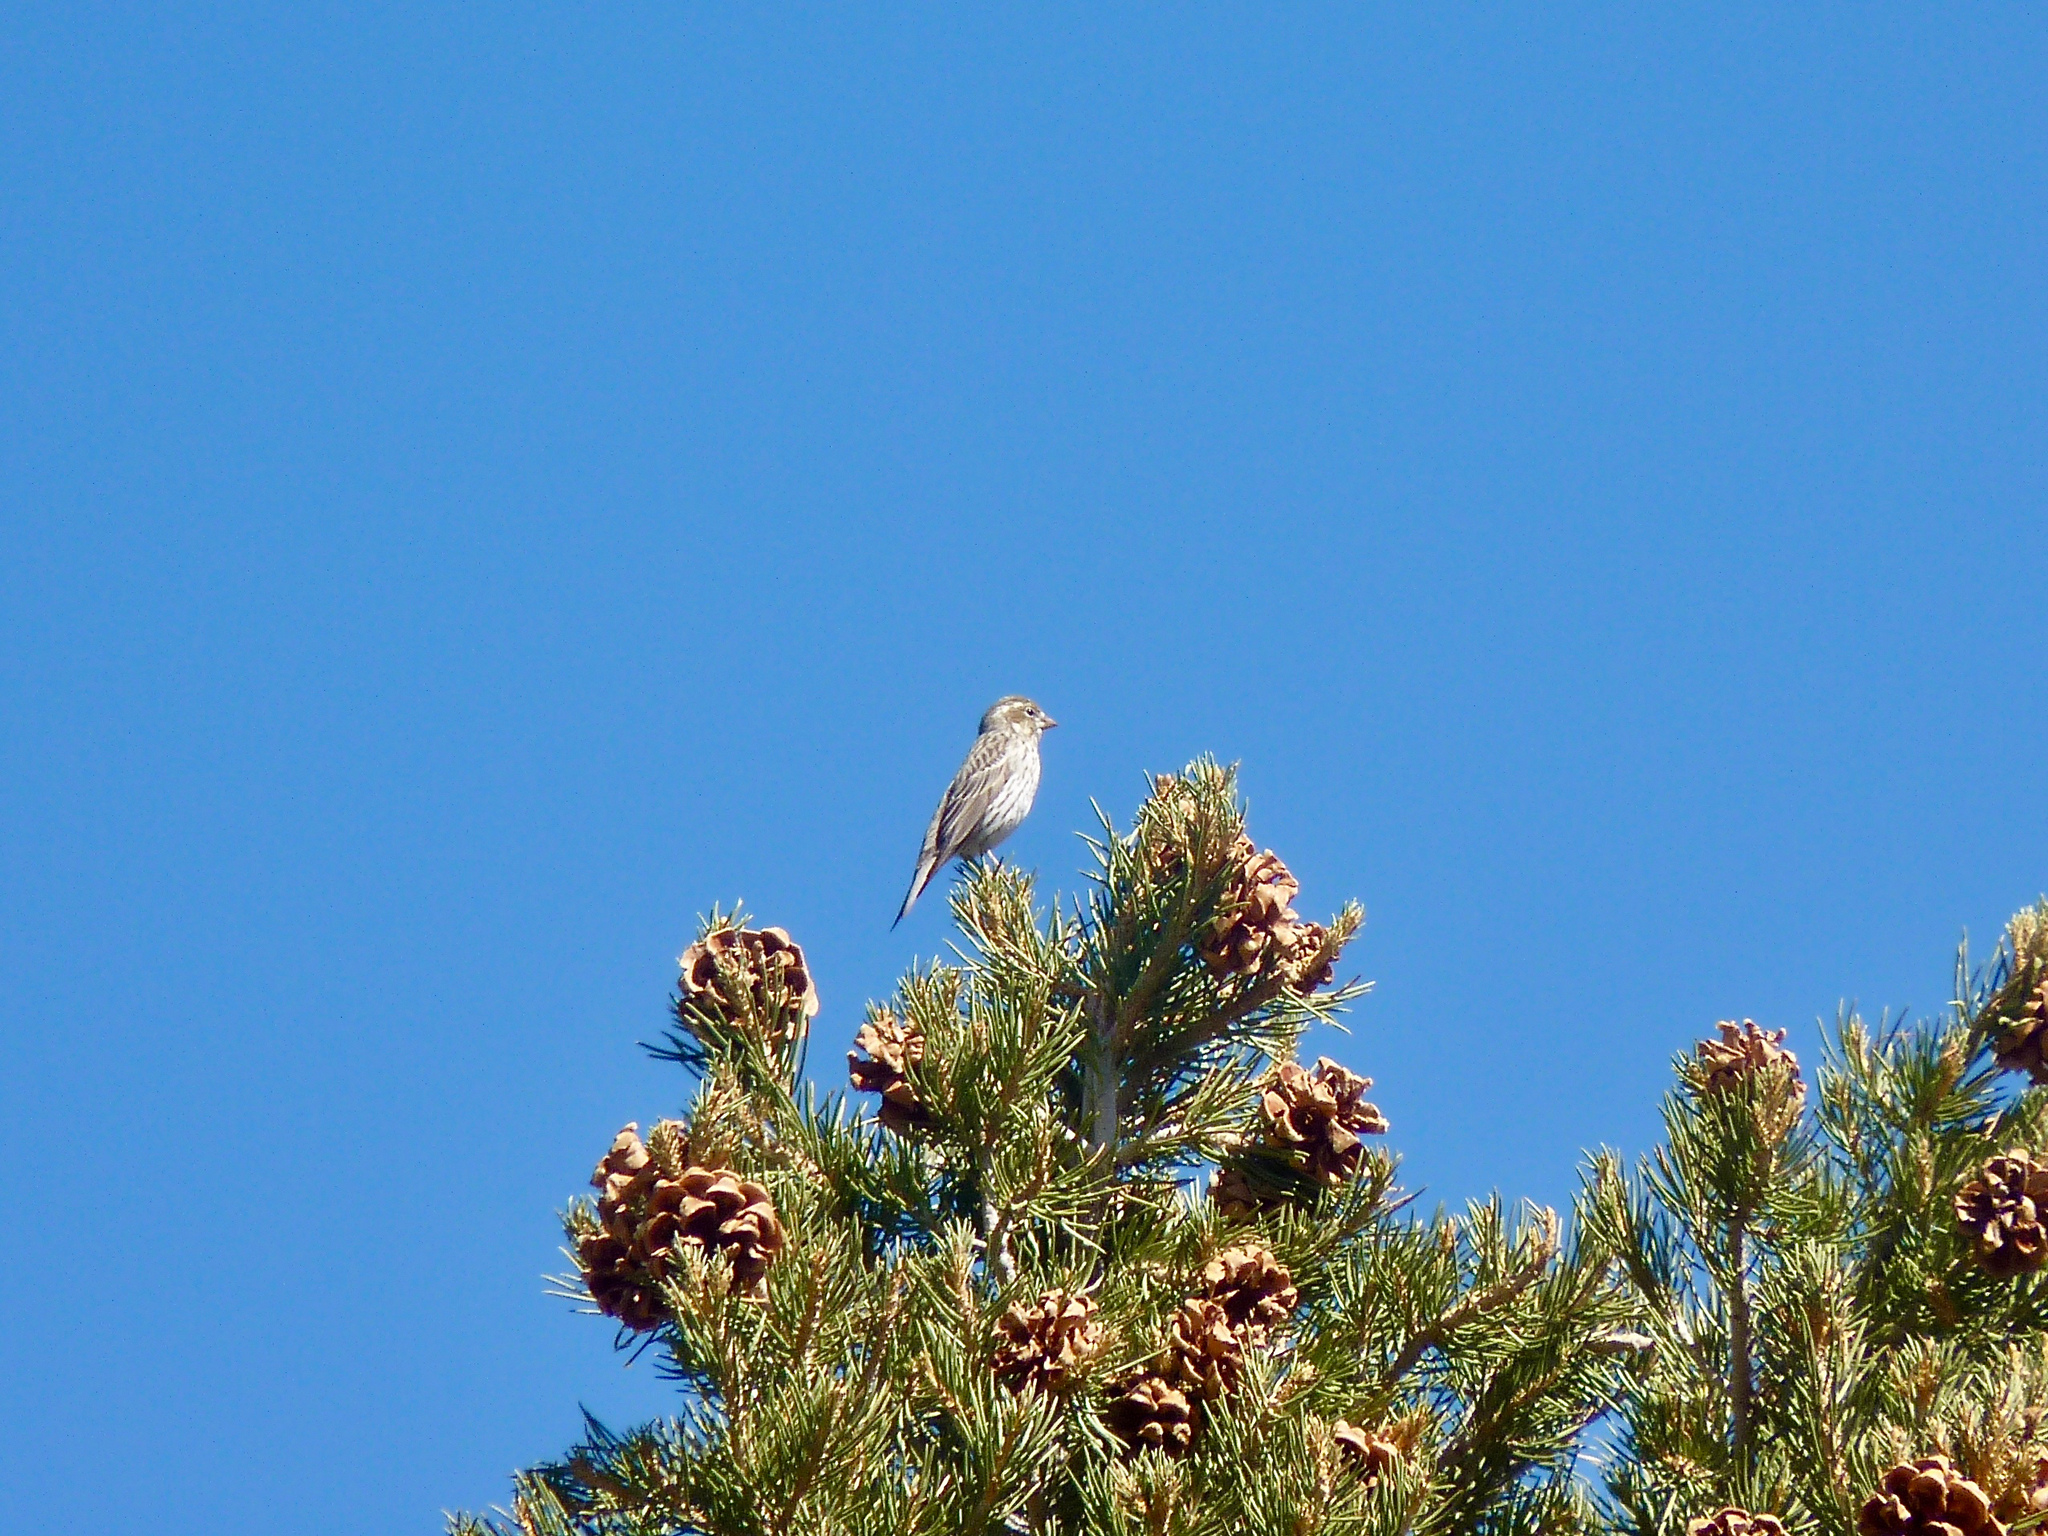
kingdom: Animalia
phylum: Chordata
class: Aves
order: Passeriformes
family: Fringillidae
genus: Haemorhous
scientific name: Haemorhous cassinii
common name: Cassin's finch
